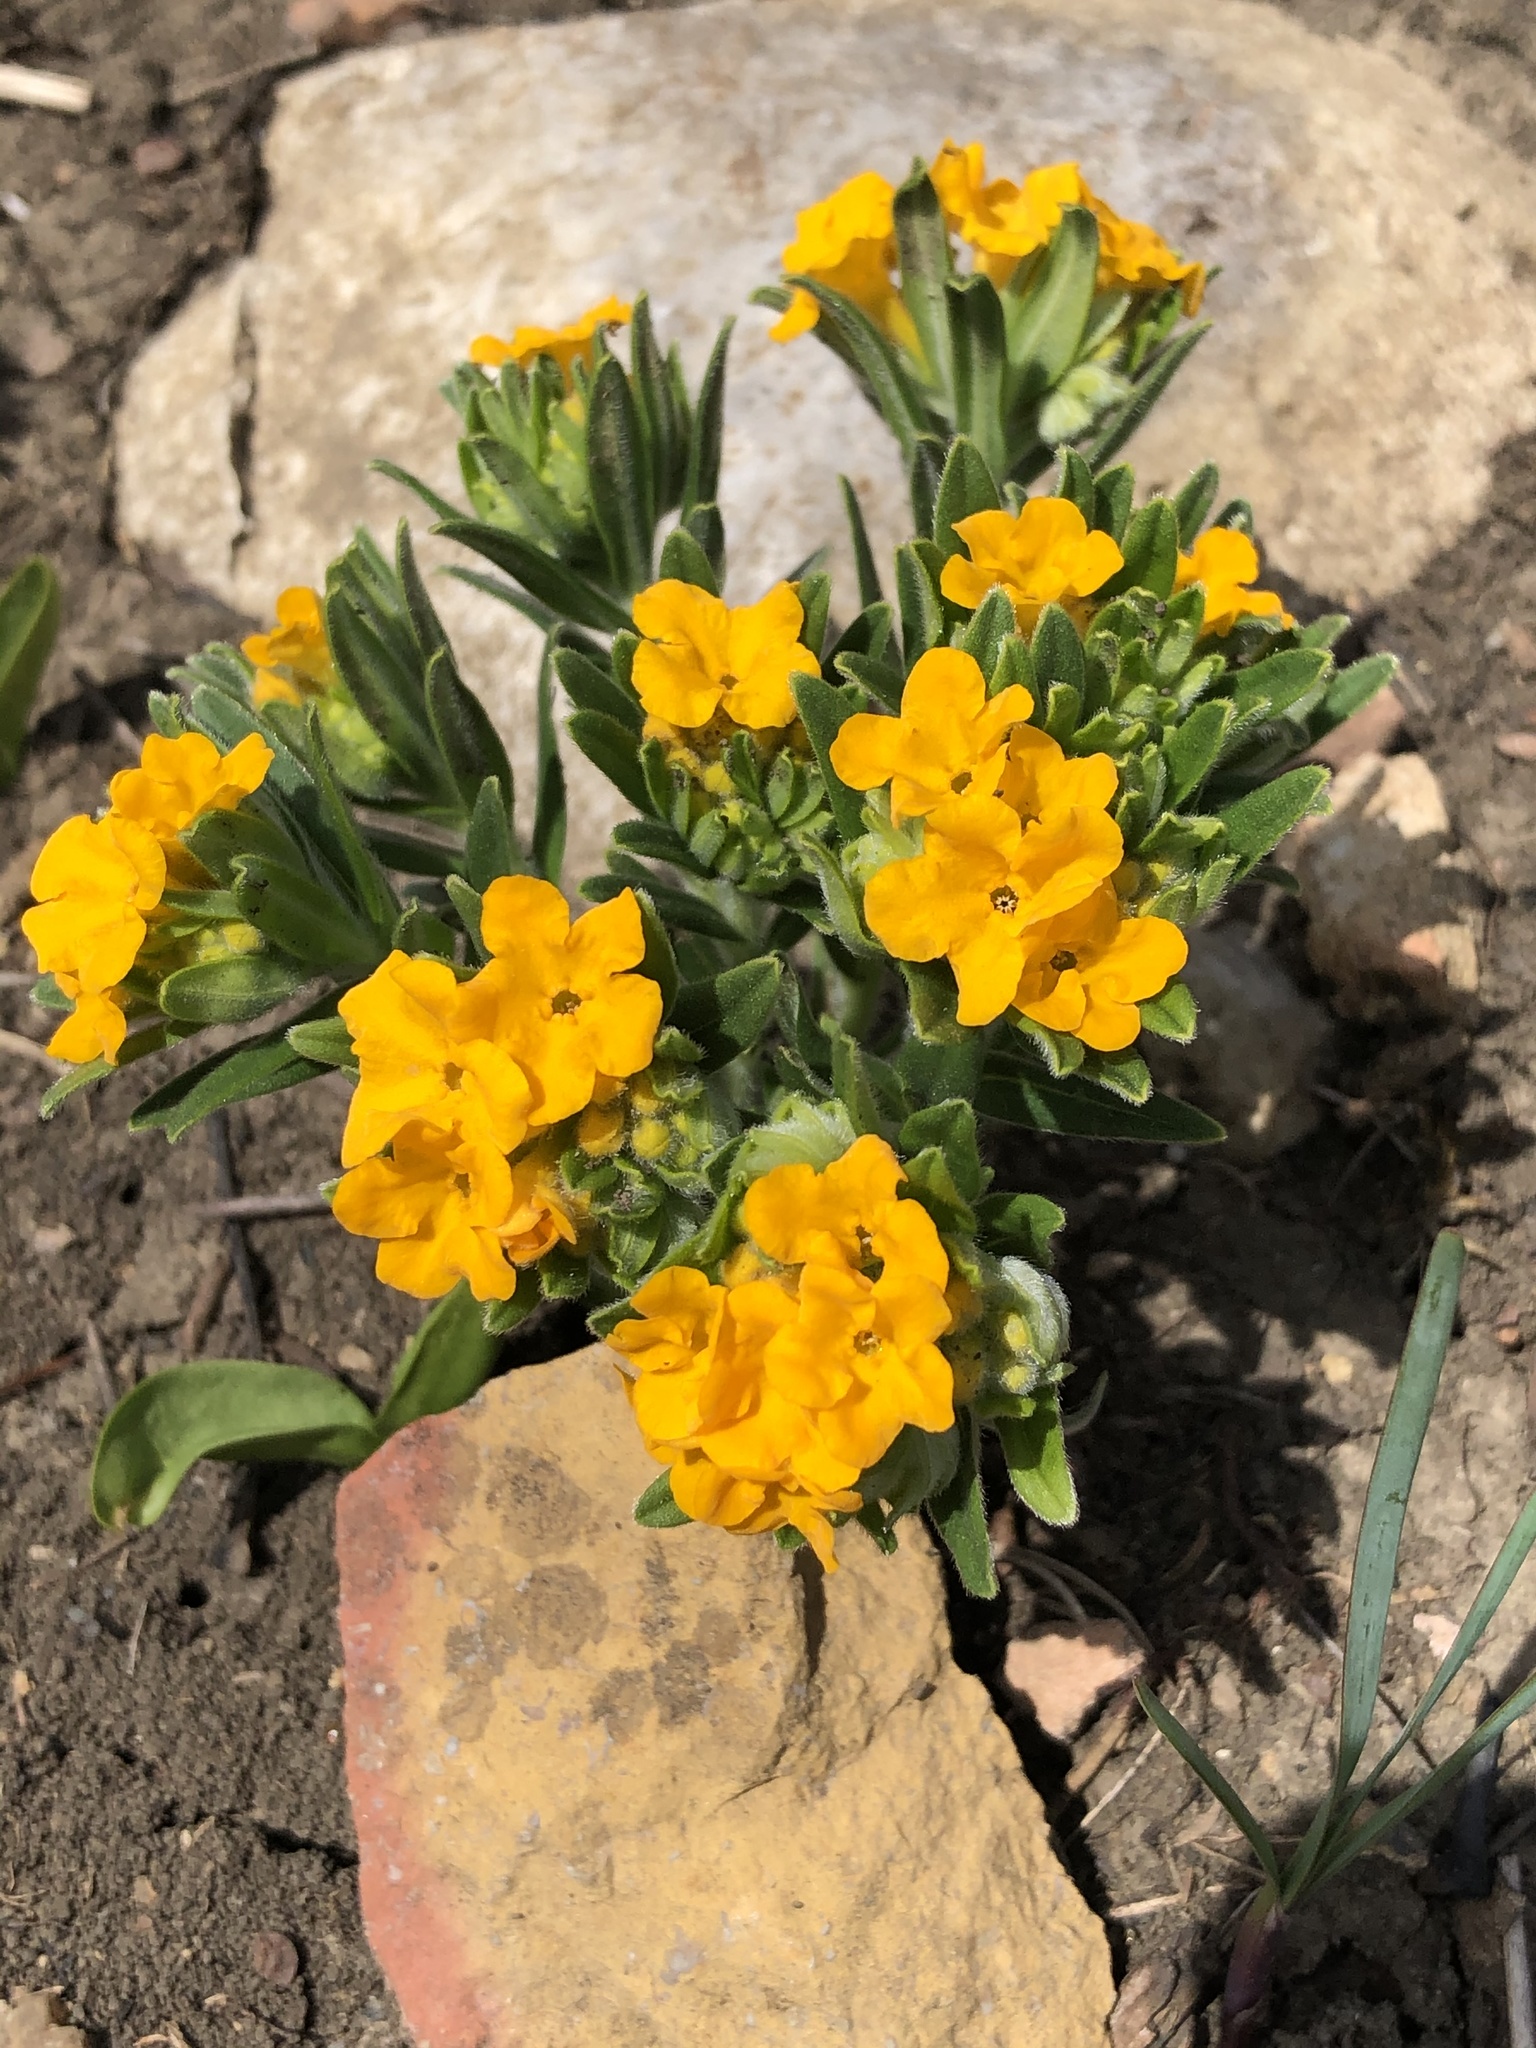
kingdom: Plantae
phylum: Tracheophyta
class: Magnoliopsida
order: Boraginales
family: Boraginaceae
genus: Lithospermum
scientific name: Lithospermum canescens
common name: Hoary puccoon
